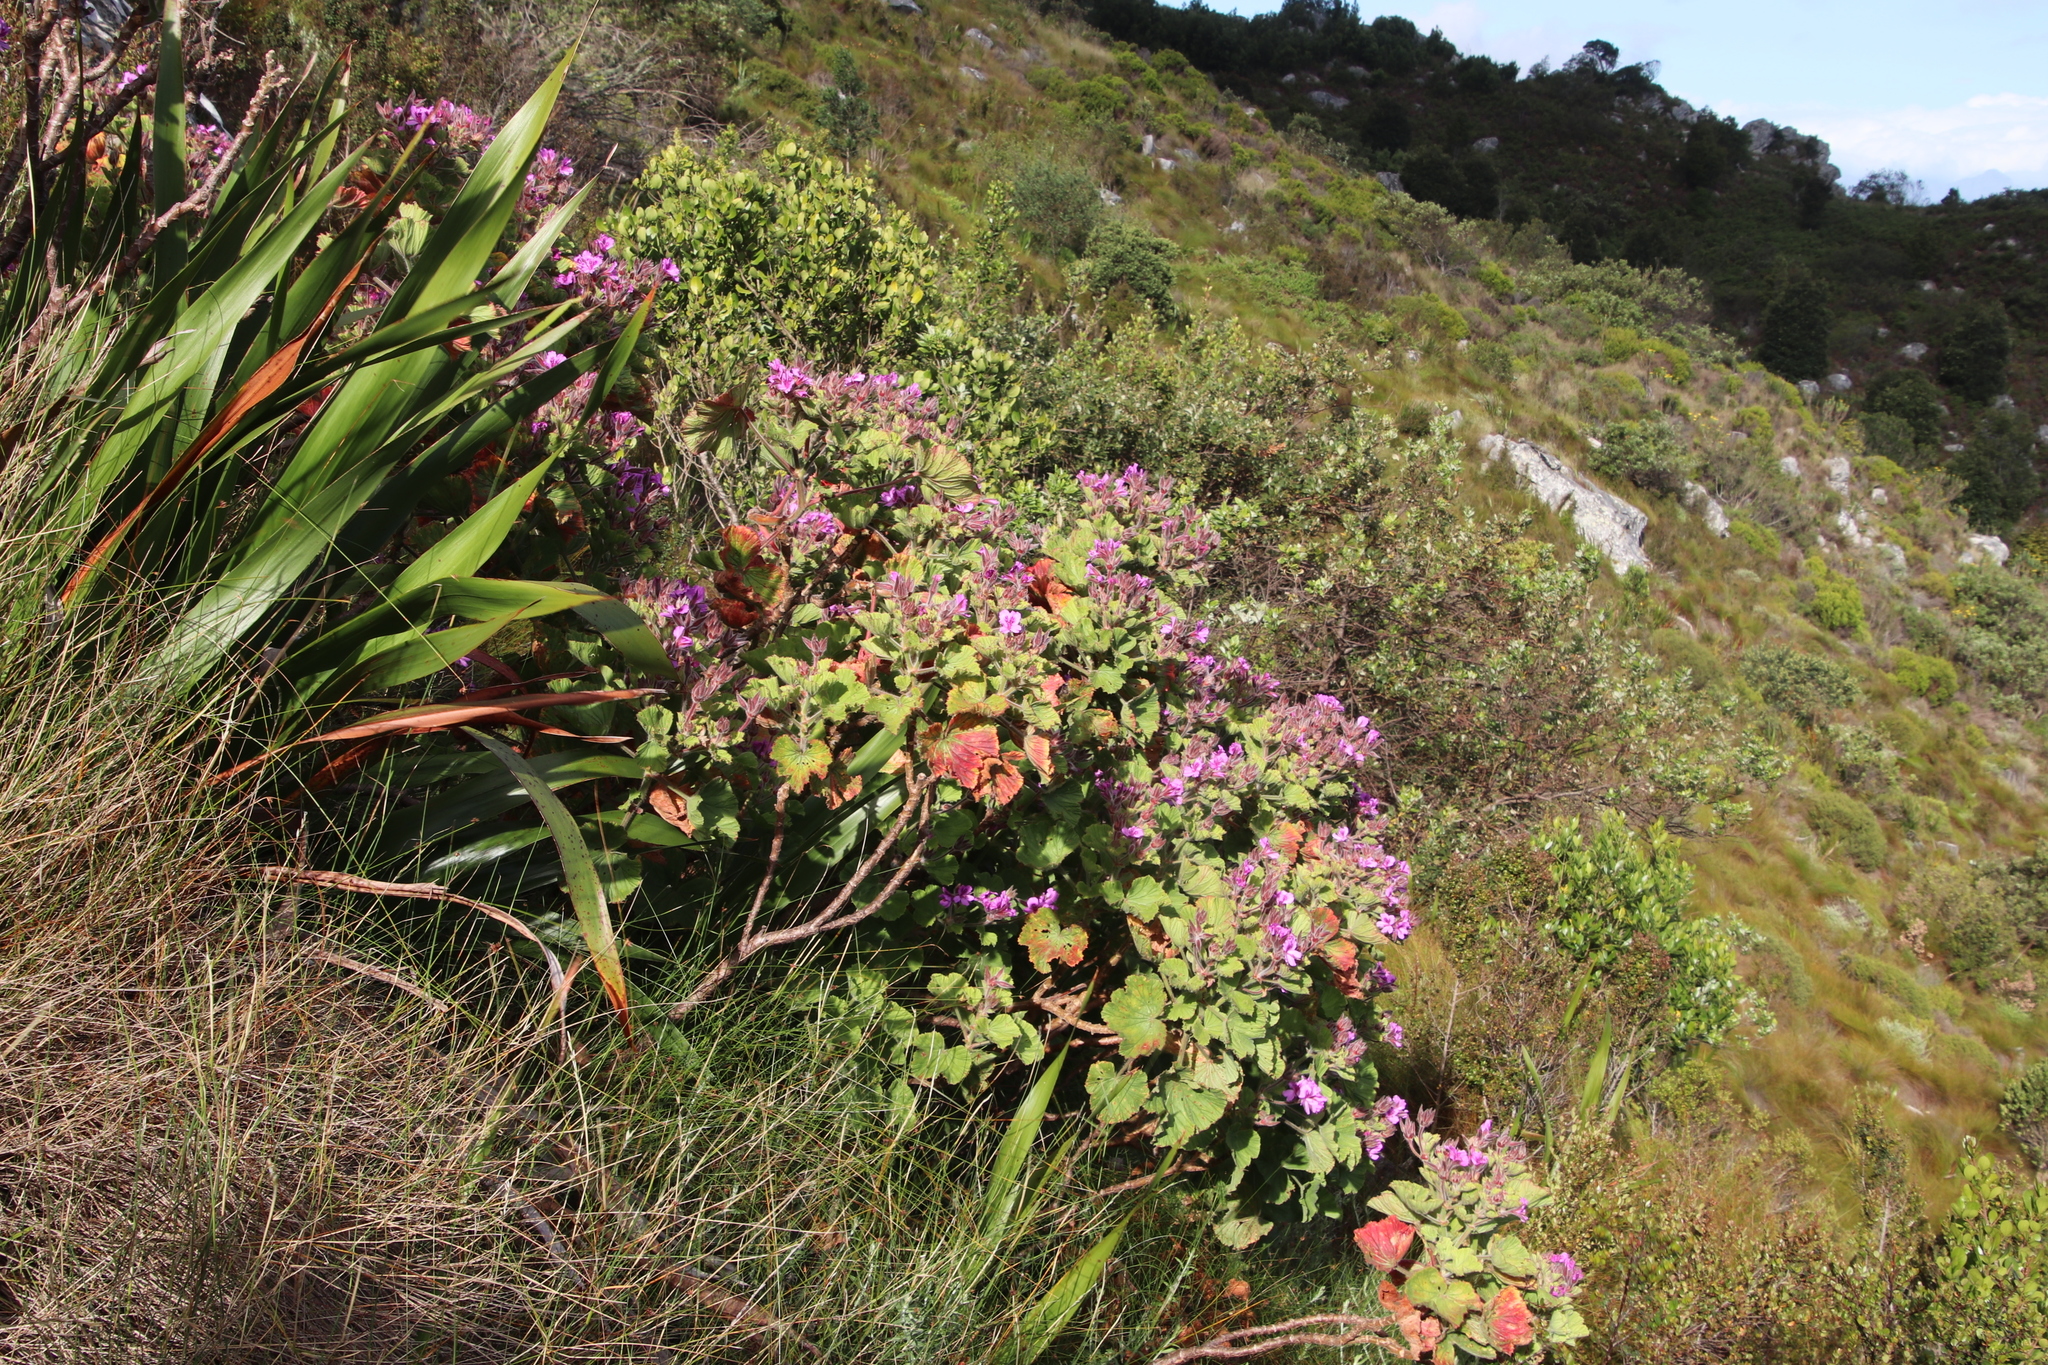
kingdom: Plantae
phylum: Tracheophyta
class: Magnoliopsida
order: Geraniales
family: Geraniaceae
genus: Pelargonium
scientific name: Pelargonium cucullatum
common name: Tree pelargonium
